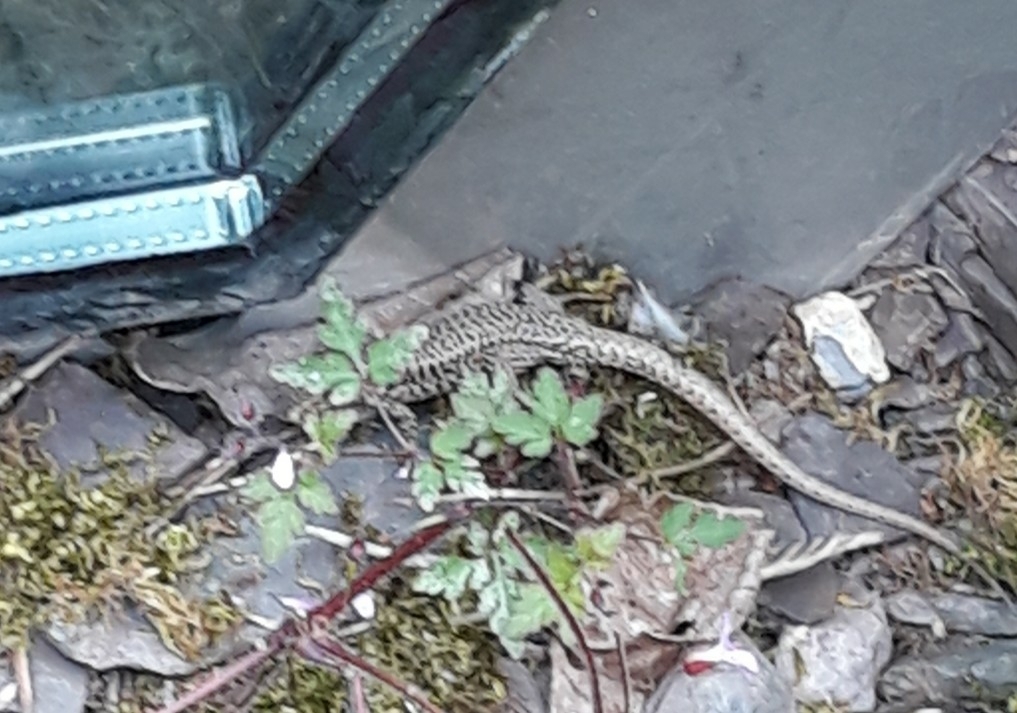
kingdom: Animalia
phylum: Chordata
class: Squamata
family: Lacertidae
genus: Podarcis
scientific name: Podarcis muralis
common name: Common wall lizard
